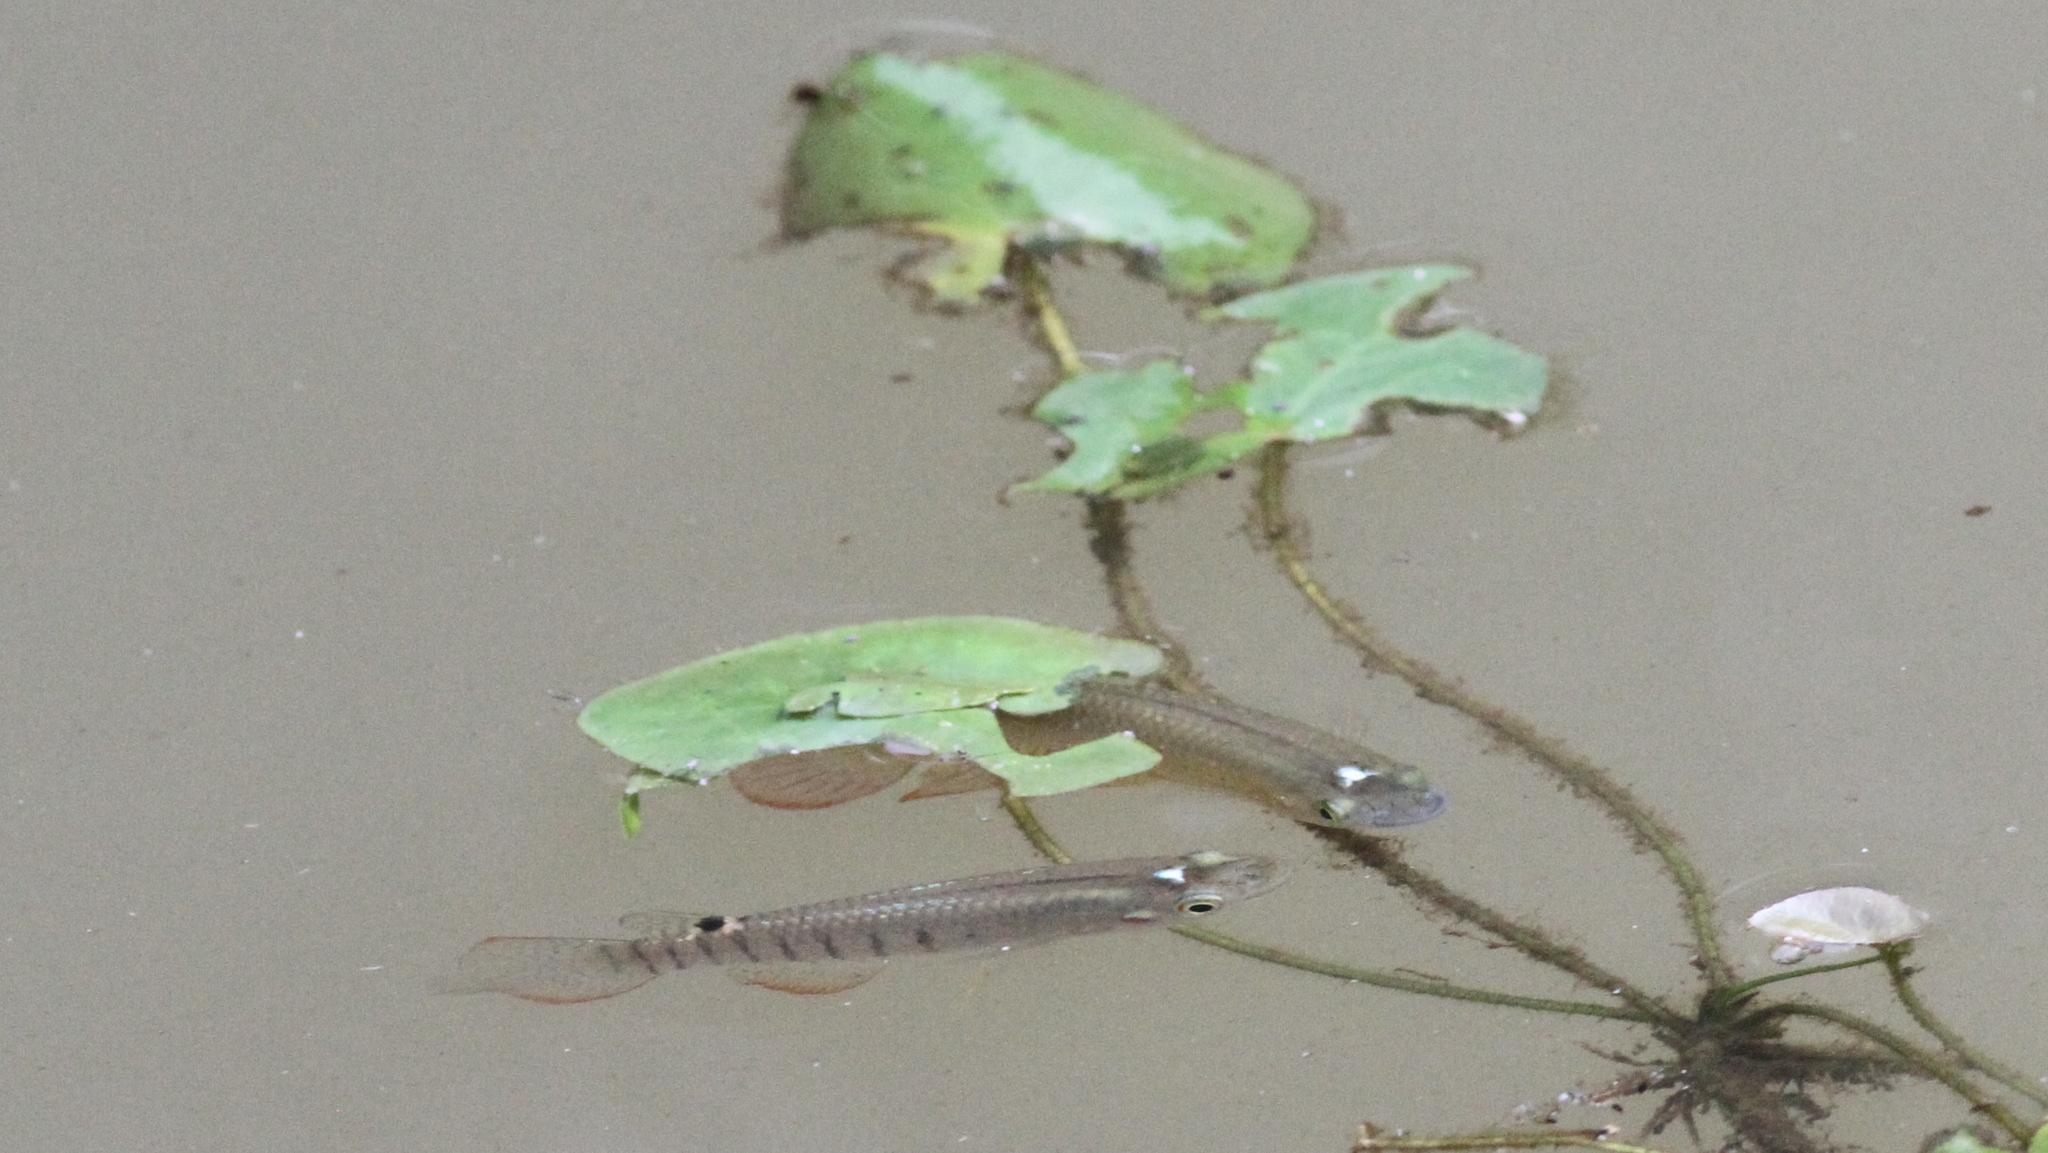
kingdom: Animalia
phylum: Chordata
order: Cyprinodontiformes
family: Aplocheilidae
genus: Aplocheilus
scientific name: Aplocheilus lineatus
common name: Striped panchax
